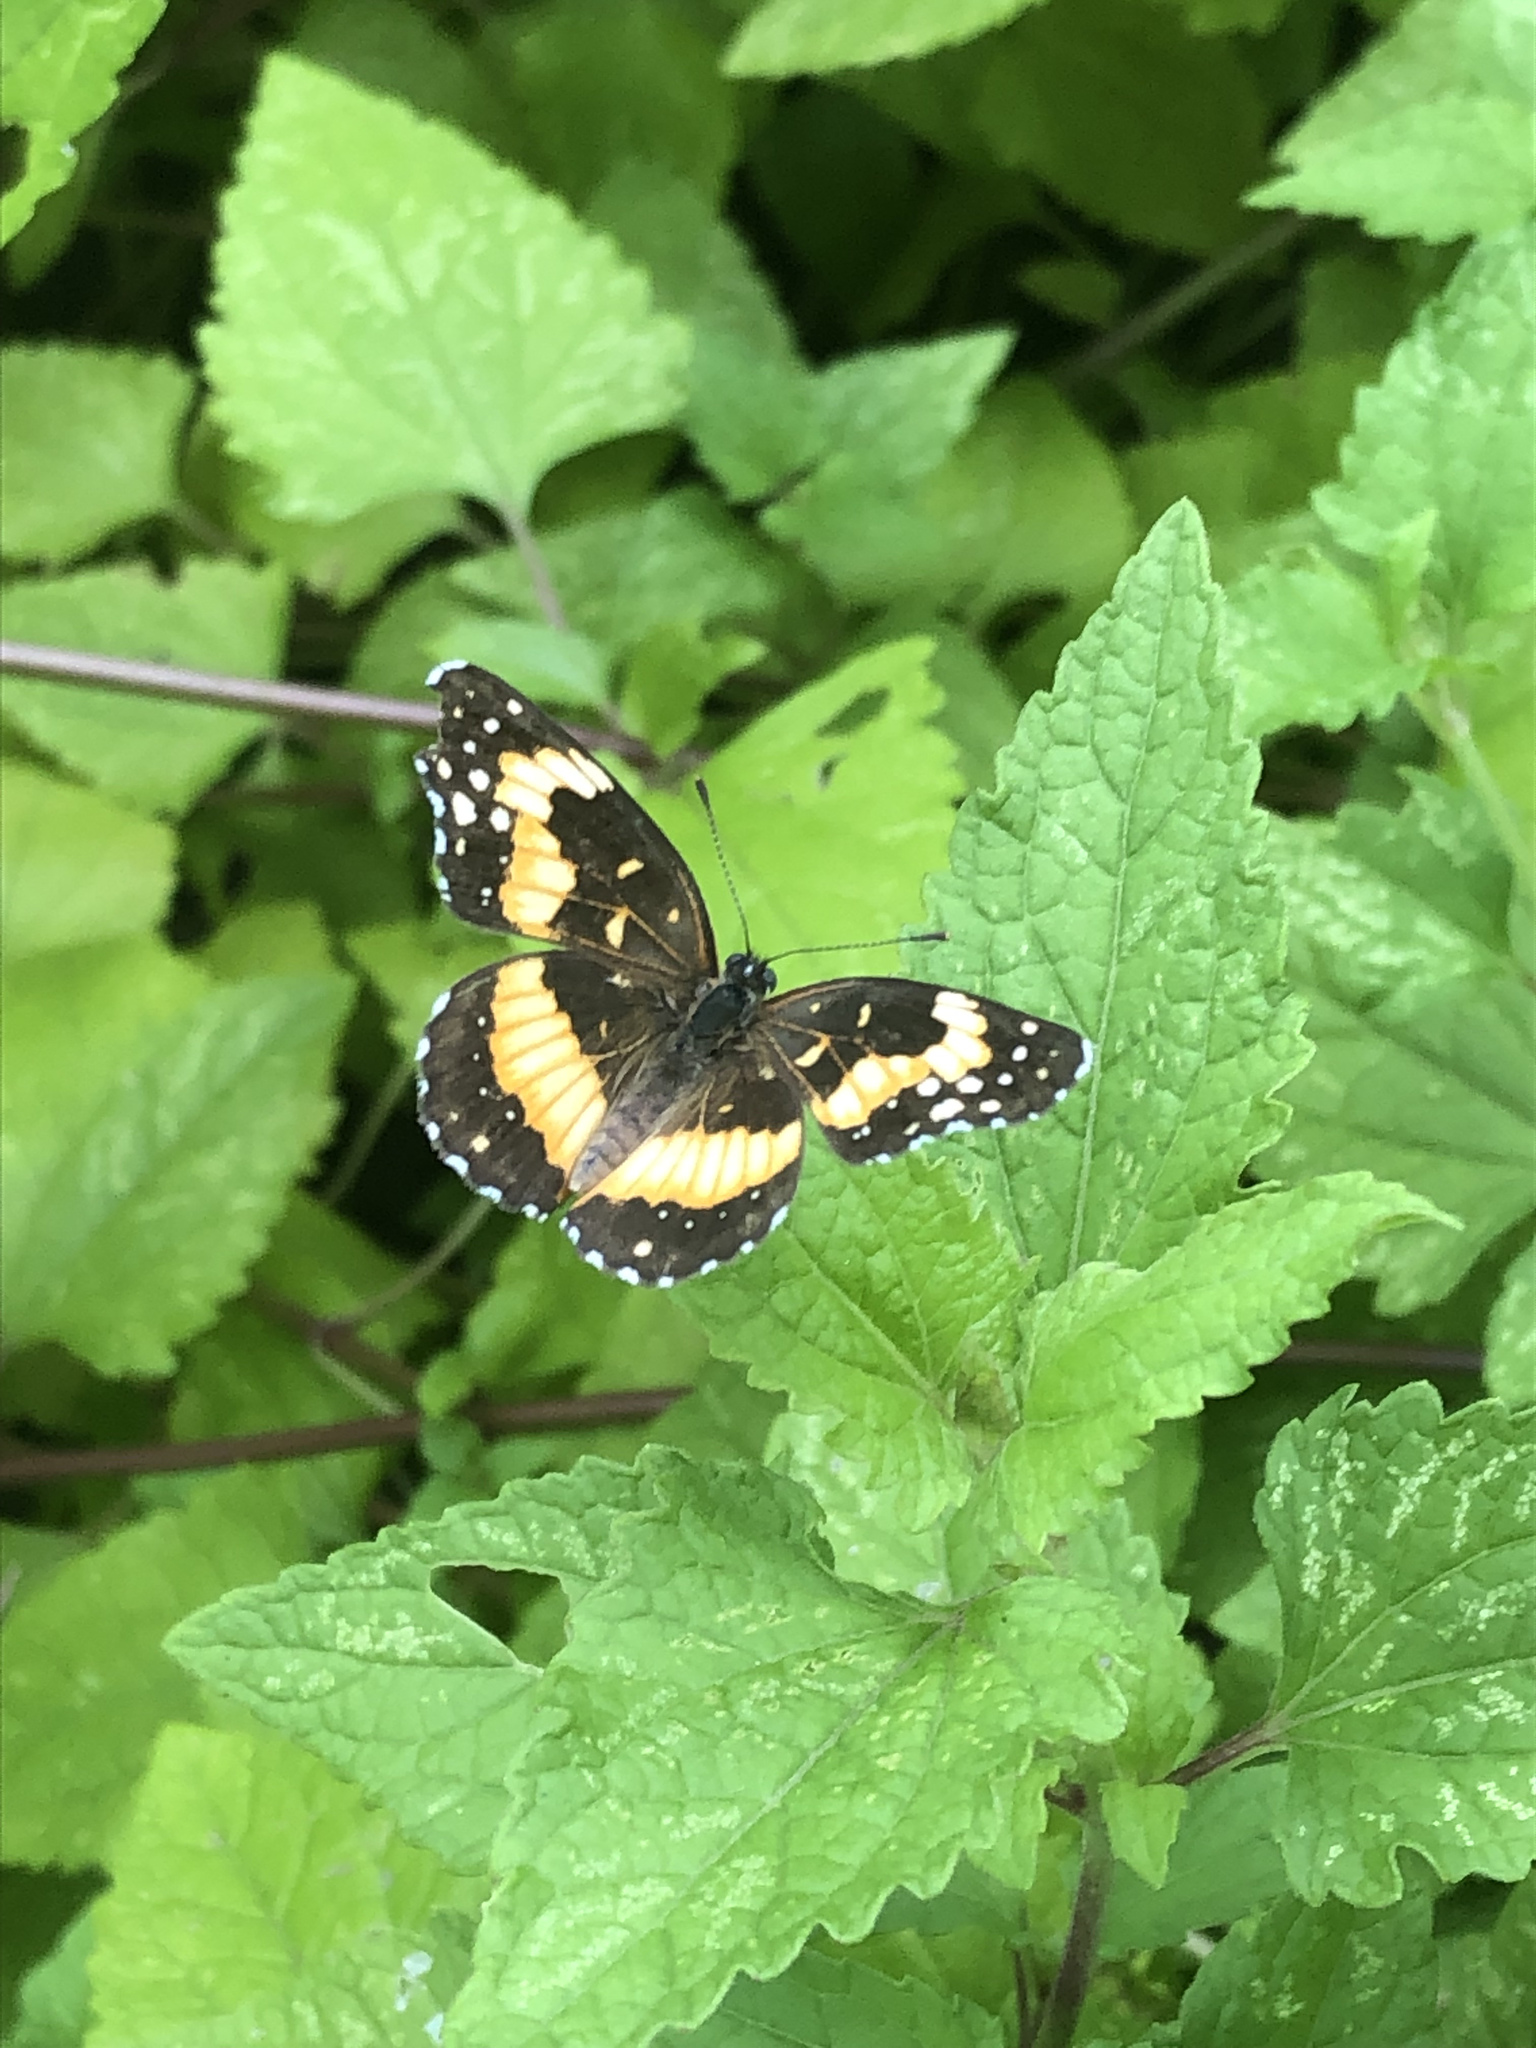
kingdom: Animalia
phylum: Arthropoda
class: Insecta
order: Lepidoptera
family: Nymphalidae
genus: Chlosyne
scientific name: Chlosyne lacinia
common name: Bordered patch
